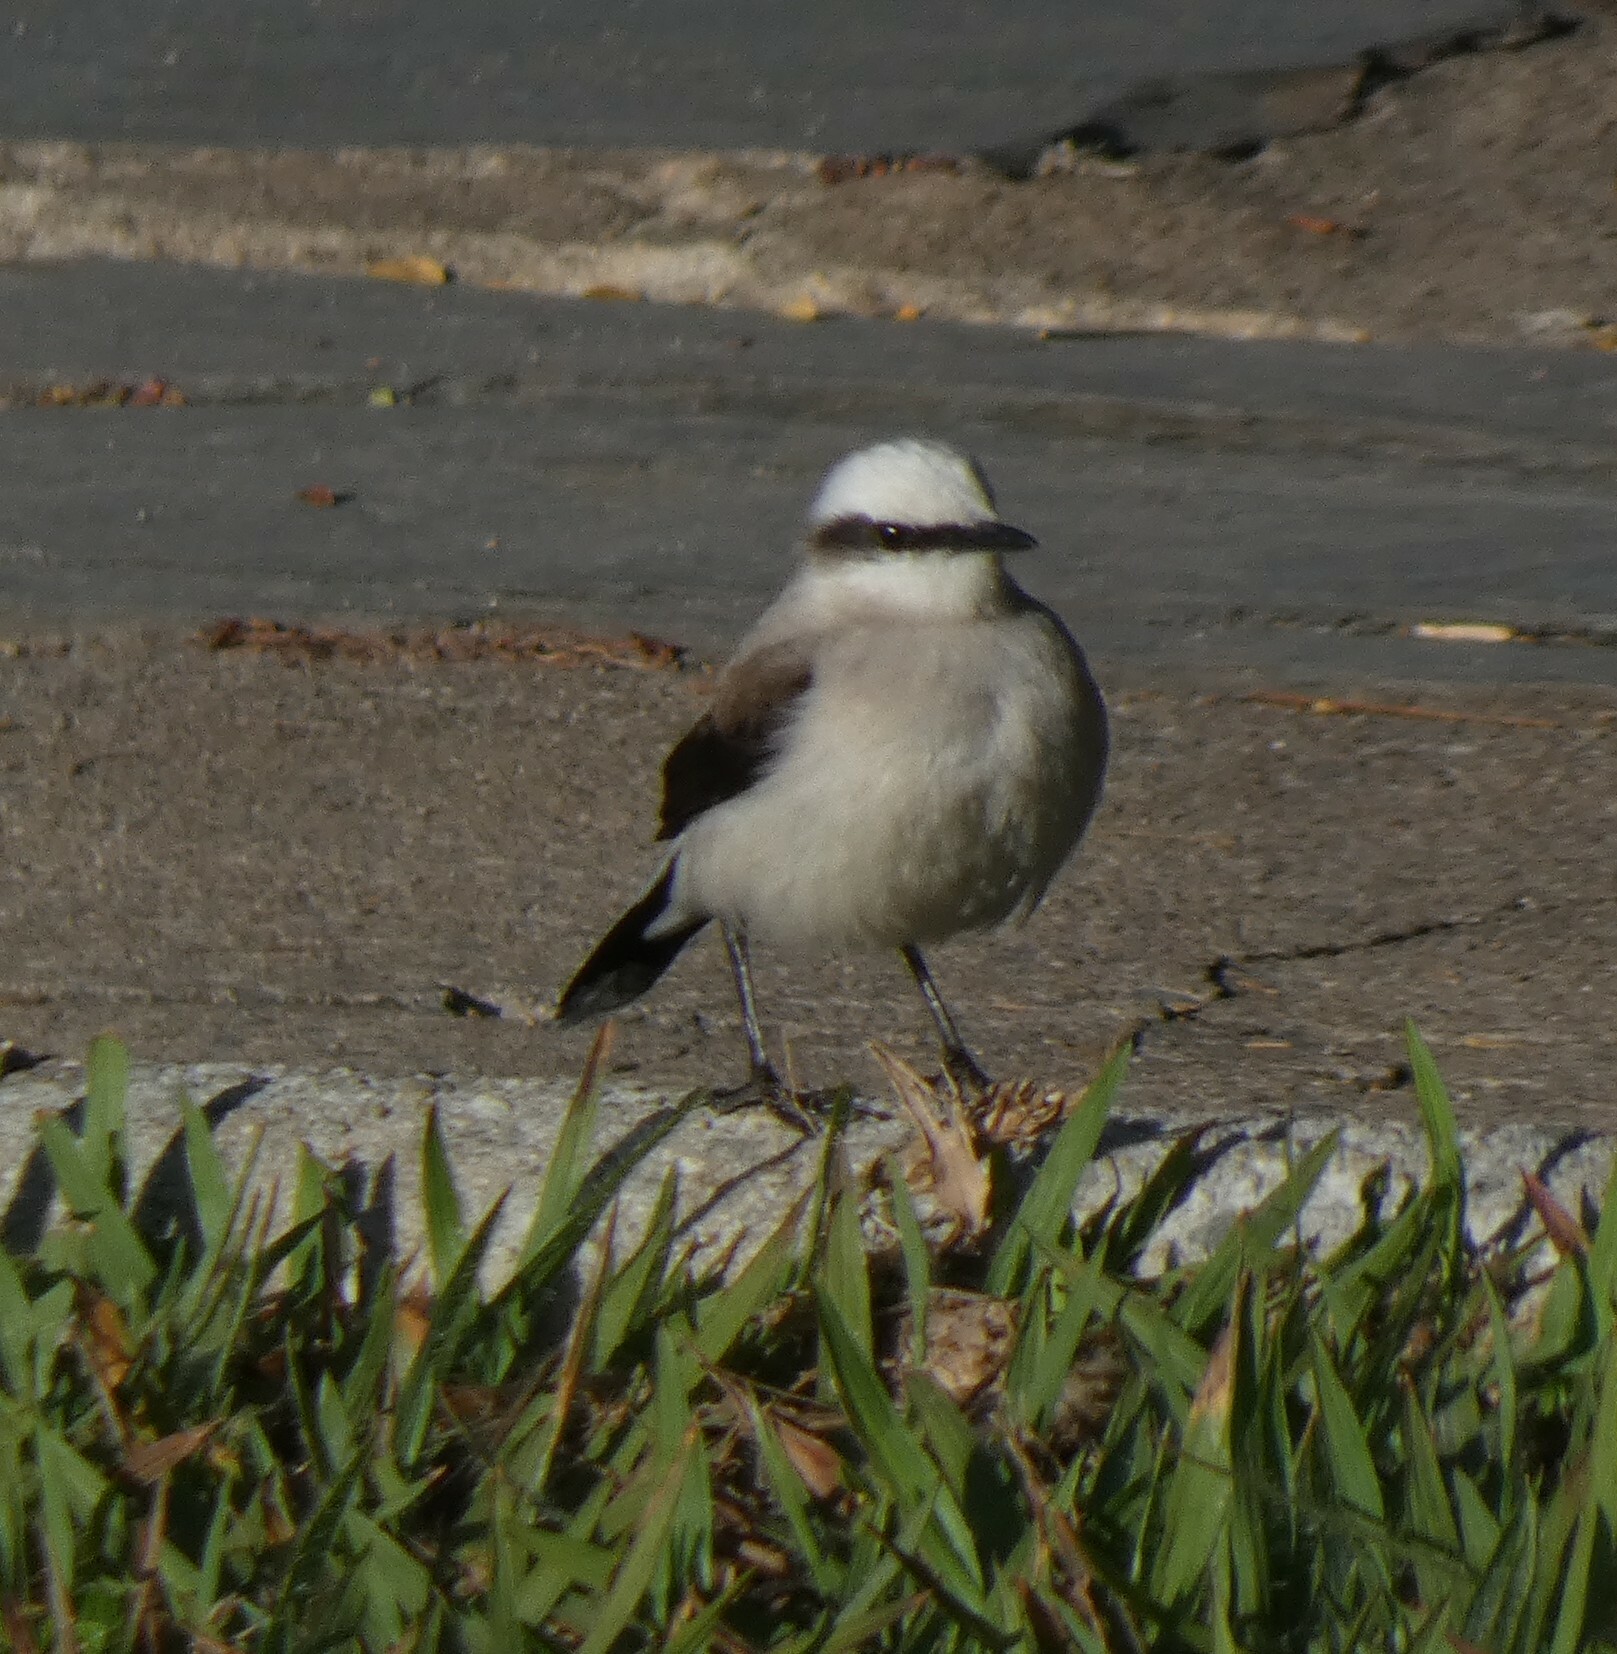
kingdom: Animalia
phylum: Chordata
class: Aves
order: Passeriformes
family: Tyrannidae
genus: Fluvicola
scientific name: Fluvicola nengeta
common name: Masked water tyrant
